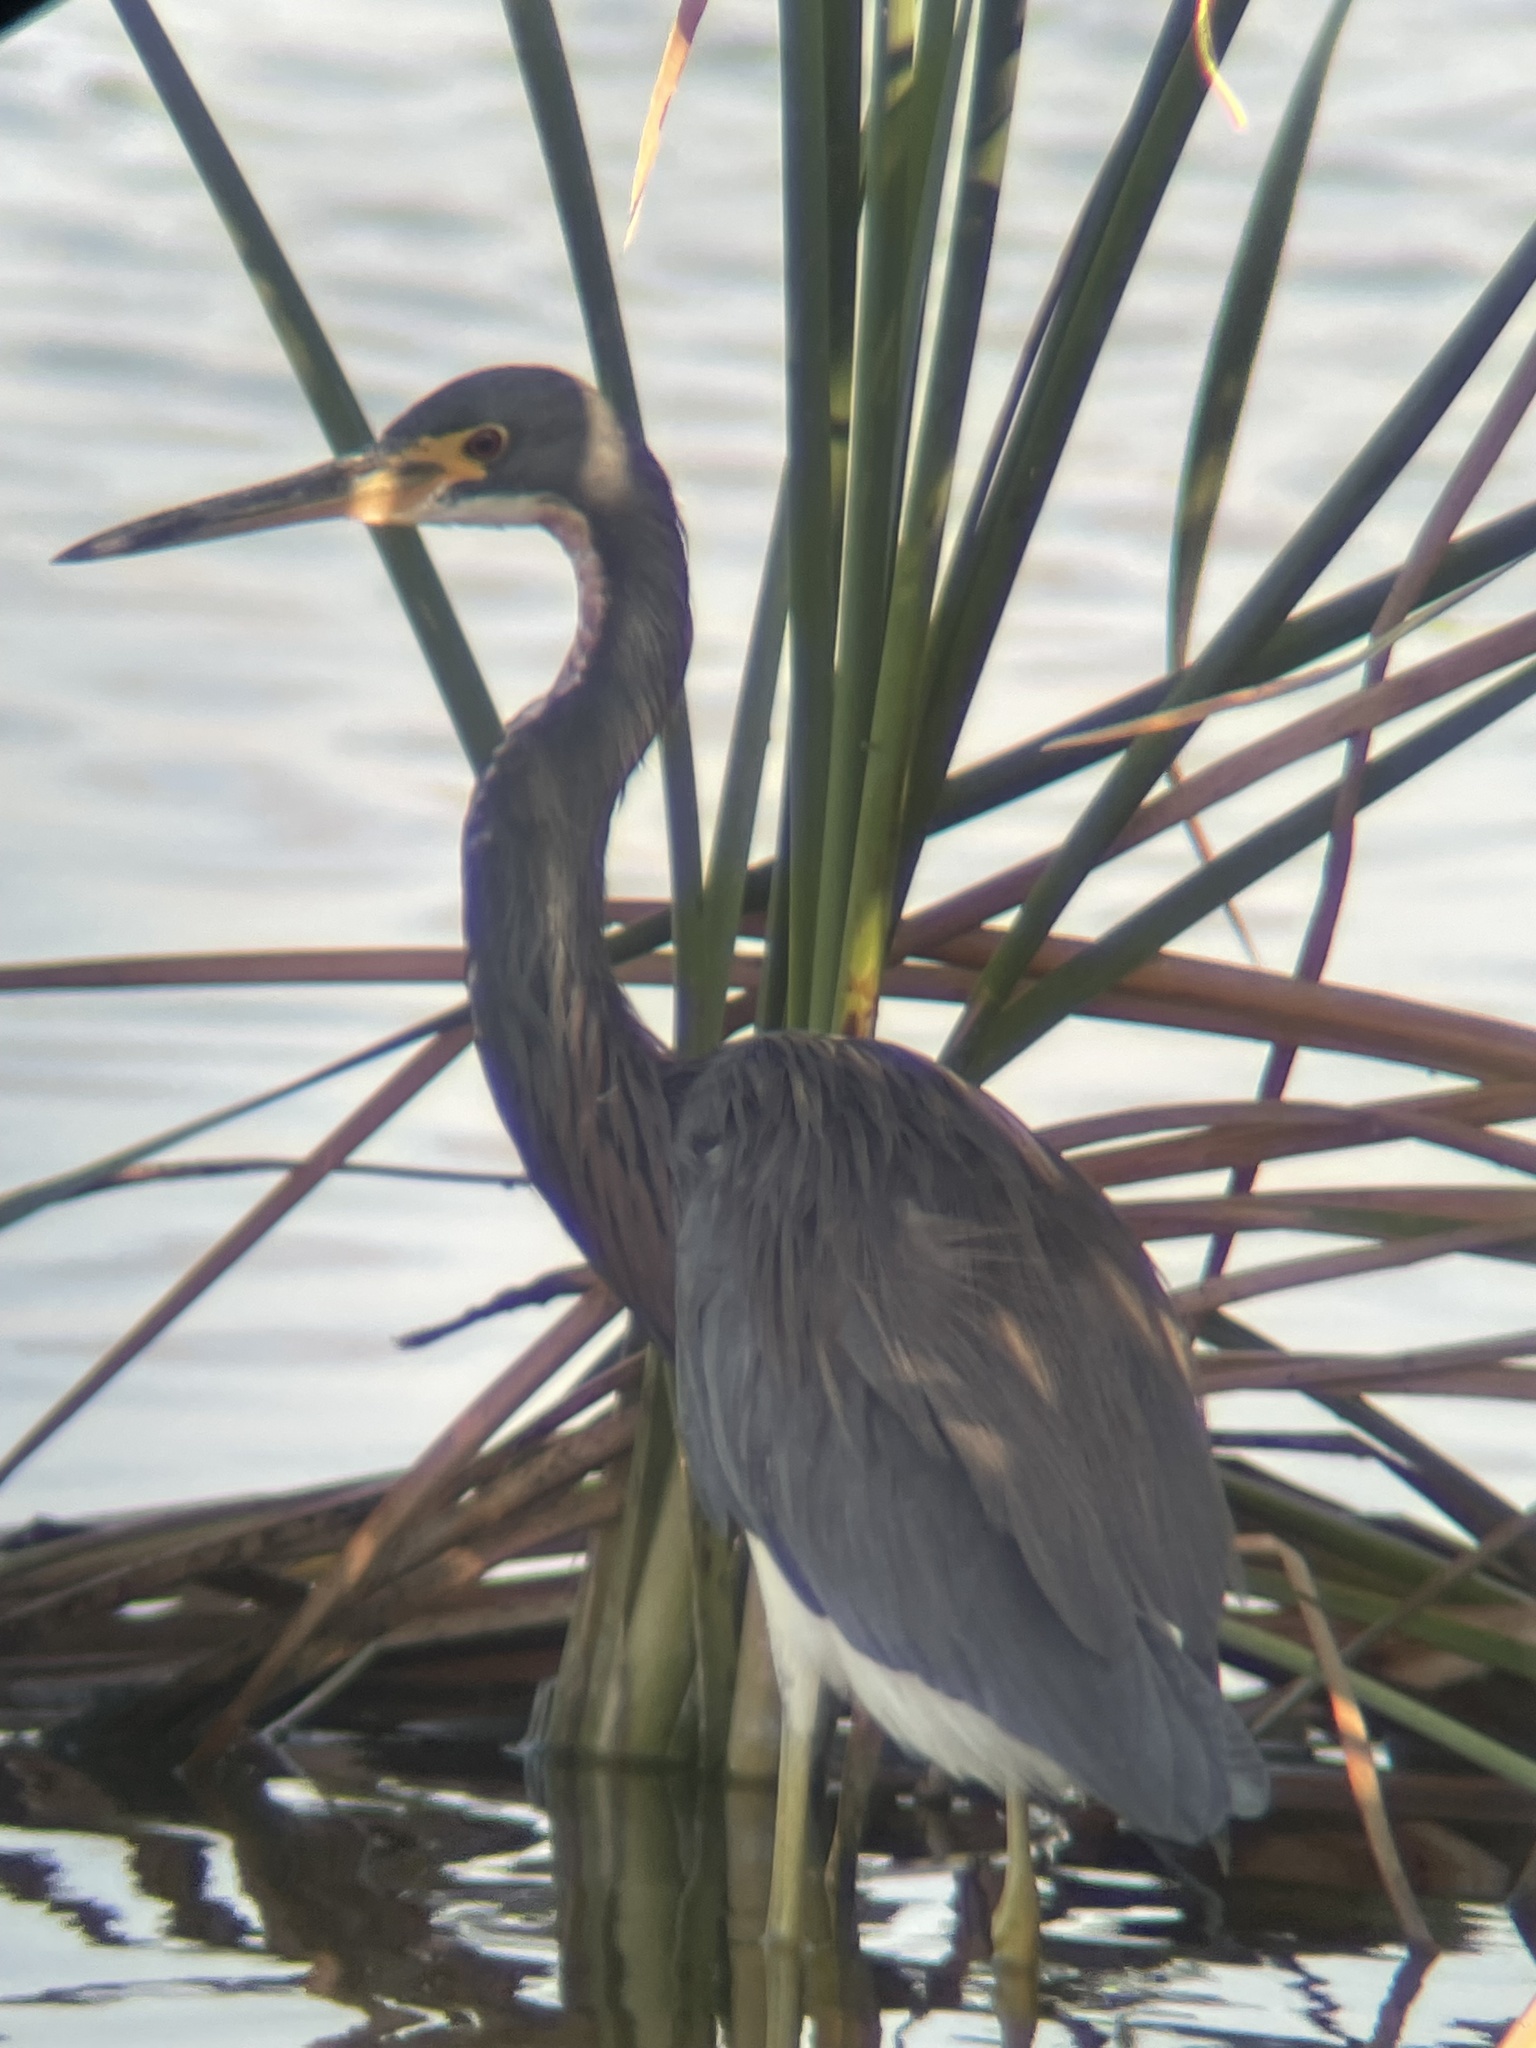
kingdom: Animalia
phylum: Chordata
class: Aves
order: Pelecaniformes
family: Ardeidae
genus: Egretta
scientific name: Egretta tricolor
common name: Tricolored heron
